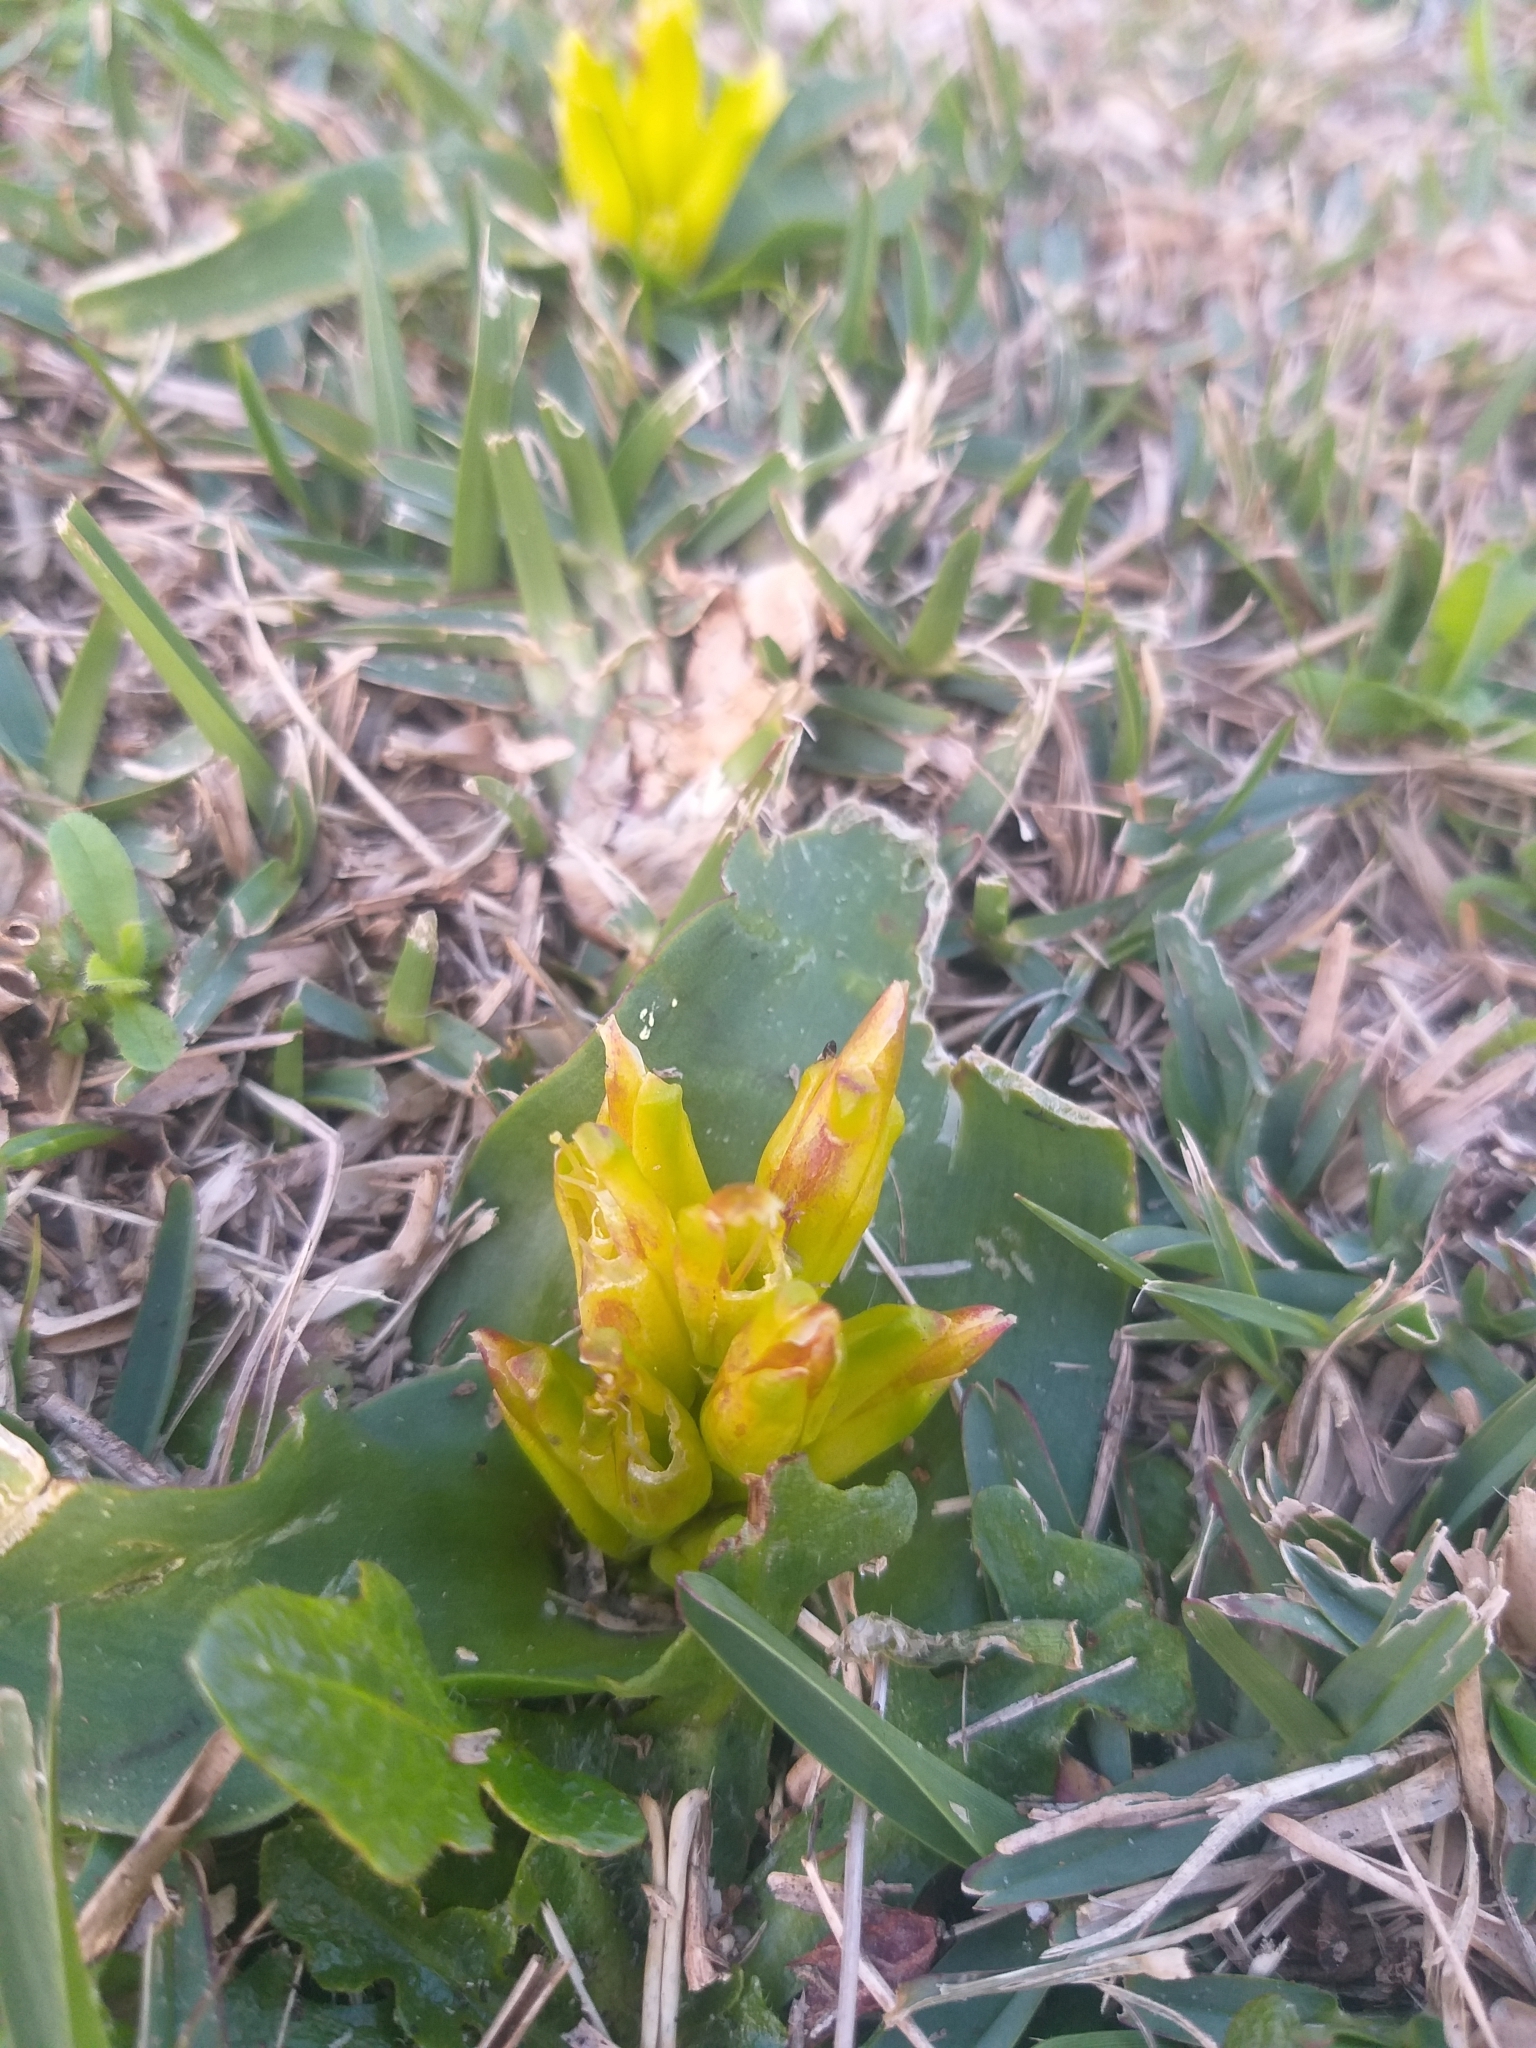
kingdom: Plantae
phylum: Tracheophyta
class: Liliopsida
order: Asparagales
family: Asparagaceae
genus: Lachenalia
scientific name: Lachenalia reflexa
